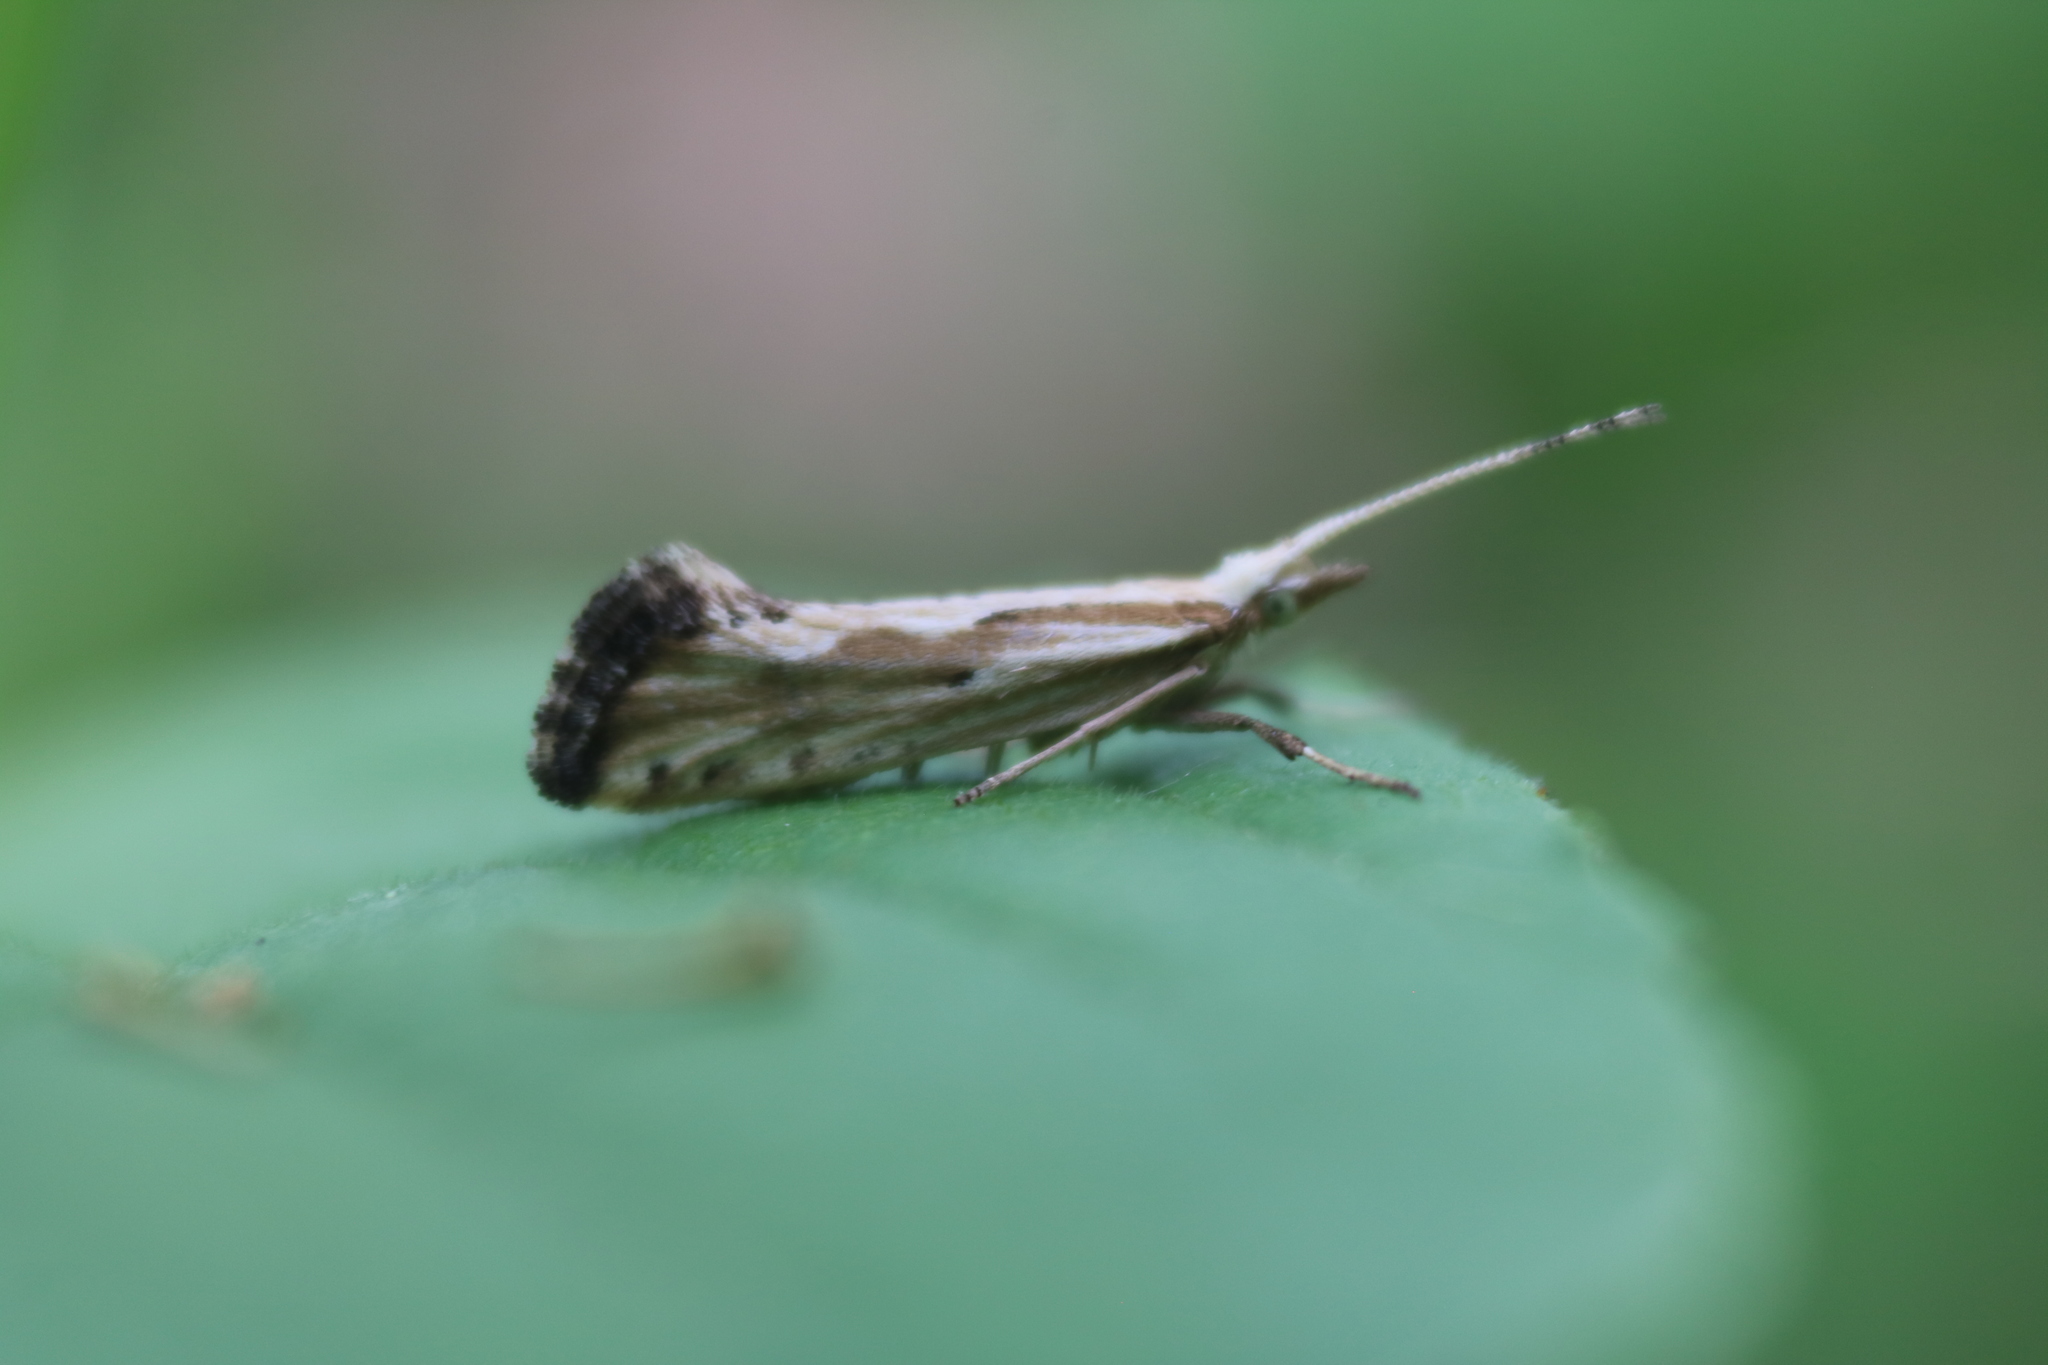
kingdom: Animalia
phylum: Arthropoda
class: Insecta
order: Lepidoptera
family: Plutellidae
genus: Plutella
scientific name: Plutella porrectella
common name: Dame's rocket moth
